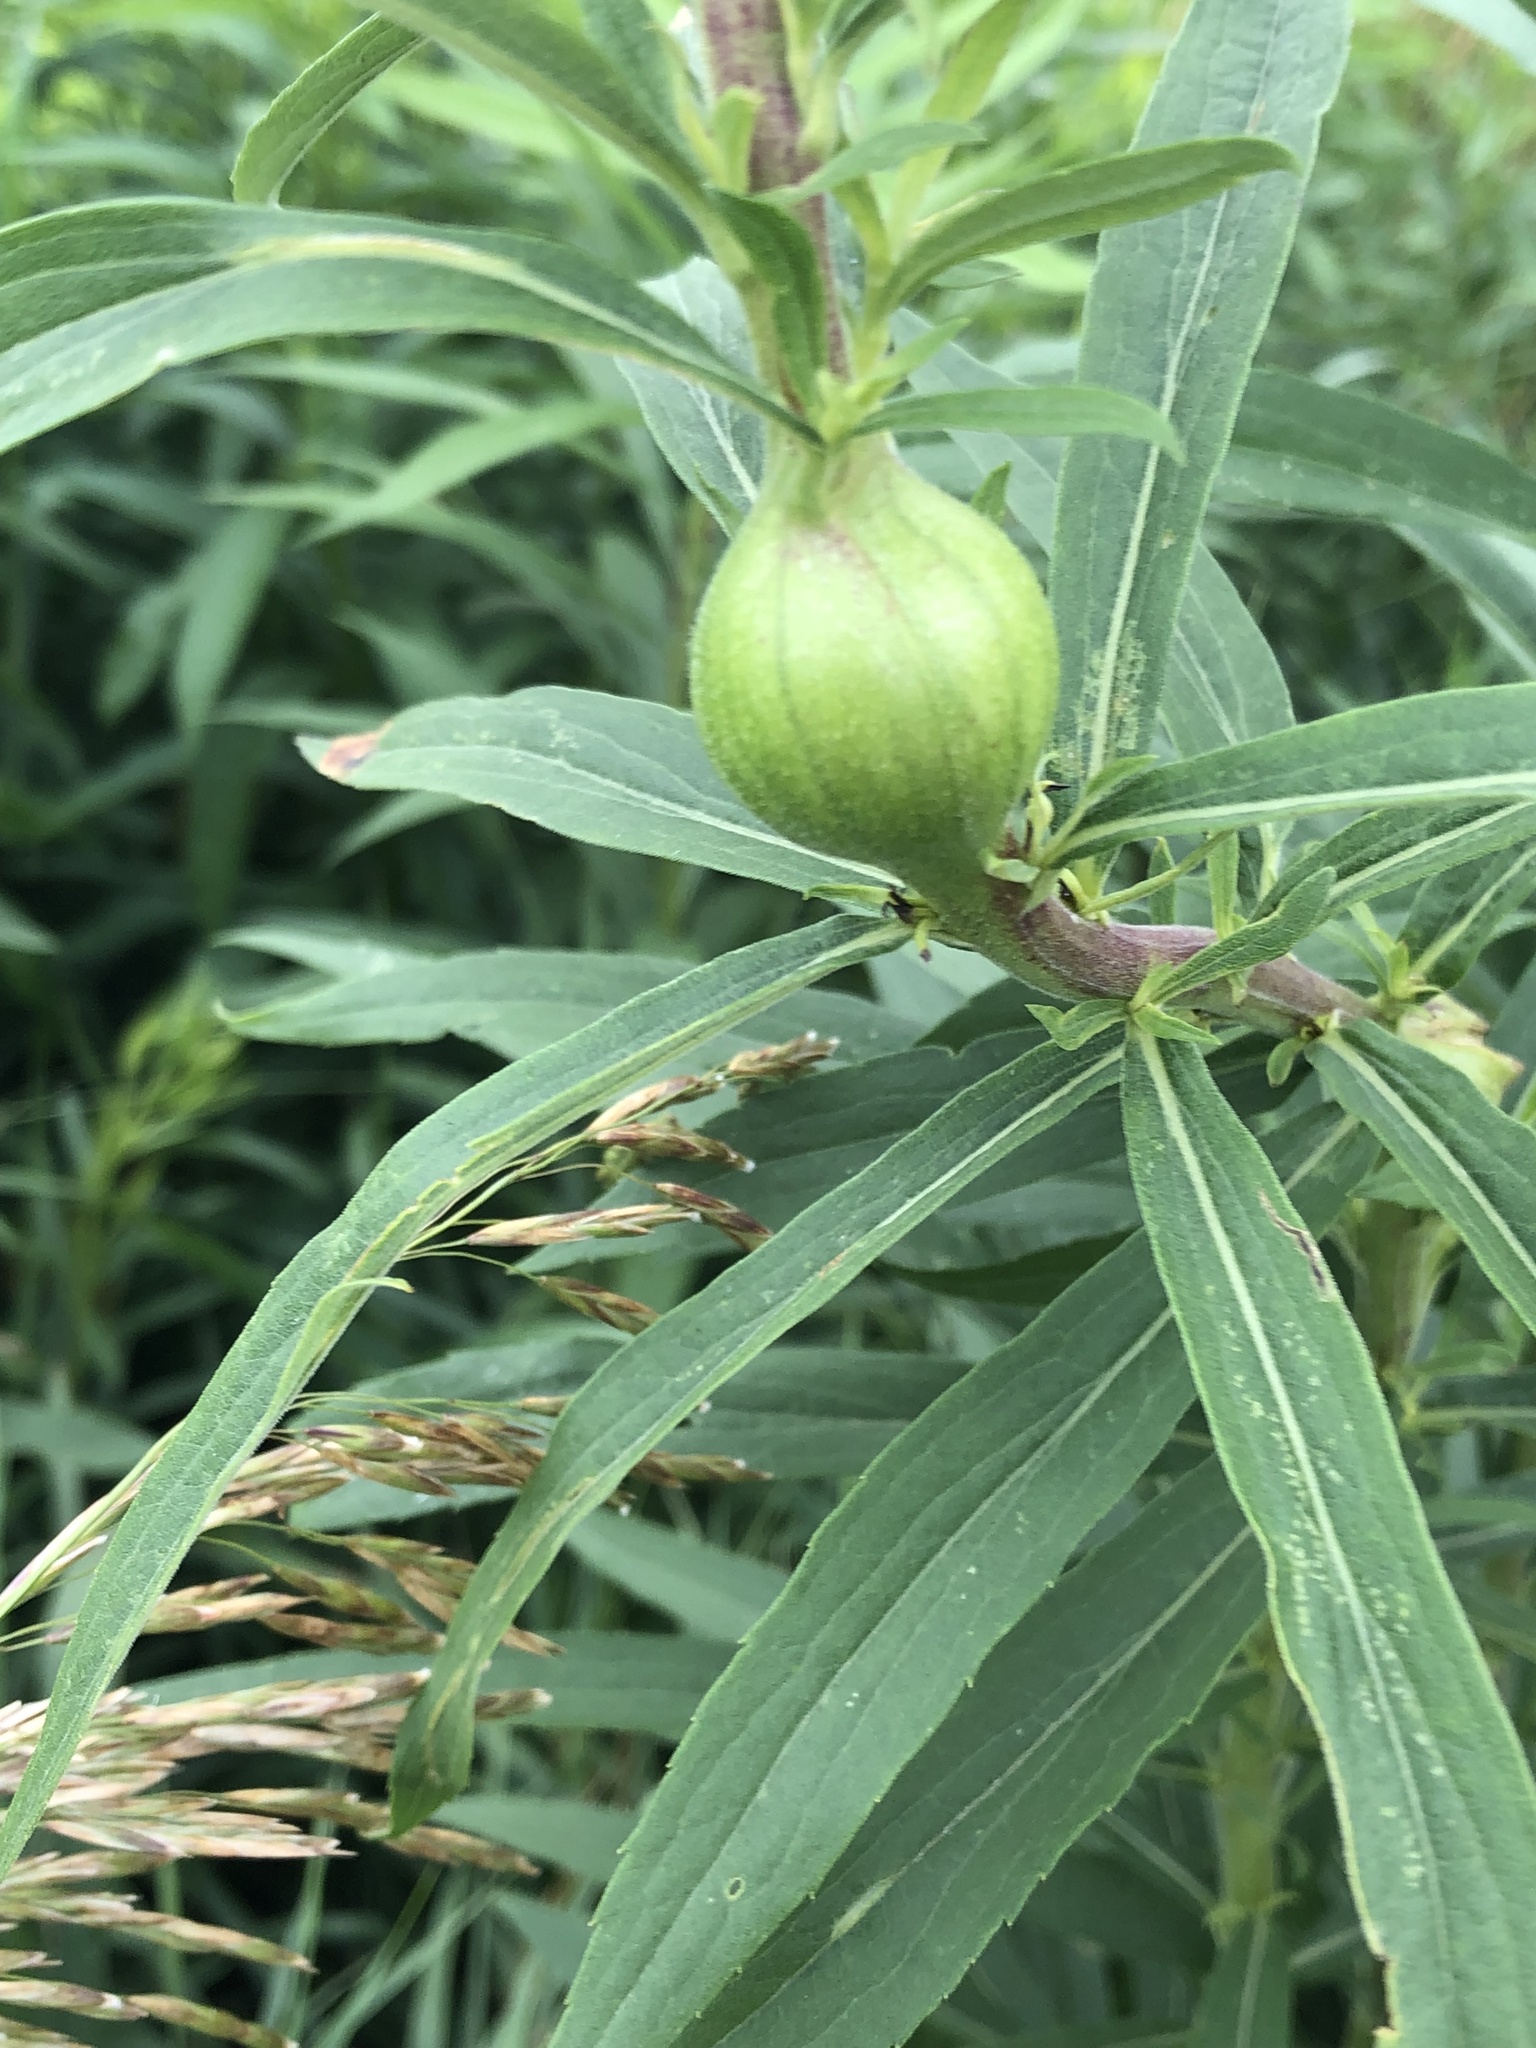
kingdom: Animalia
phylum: Arthropoda
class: Insecta
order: Diptera
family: Tephritidae
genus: Eurosta
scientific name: Eurosta solidaginis
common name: Goldenrod gall fly
